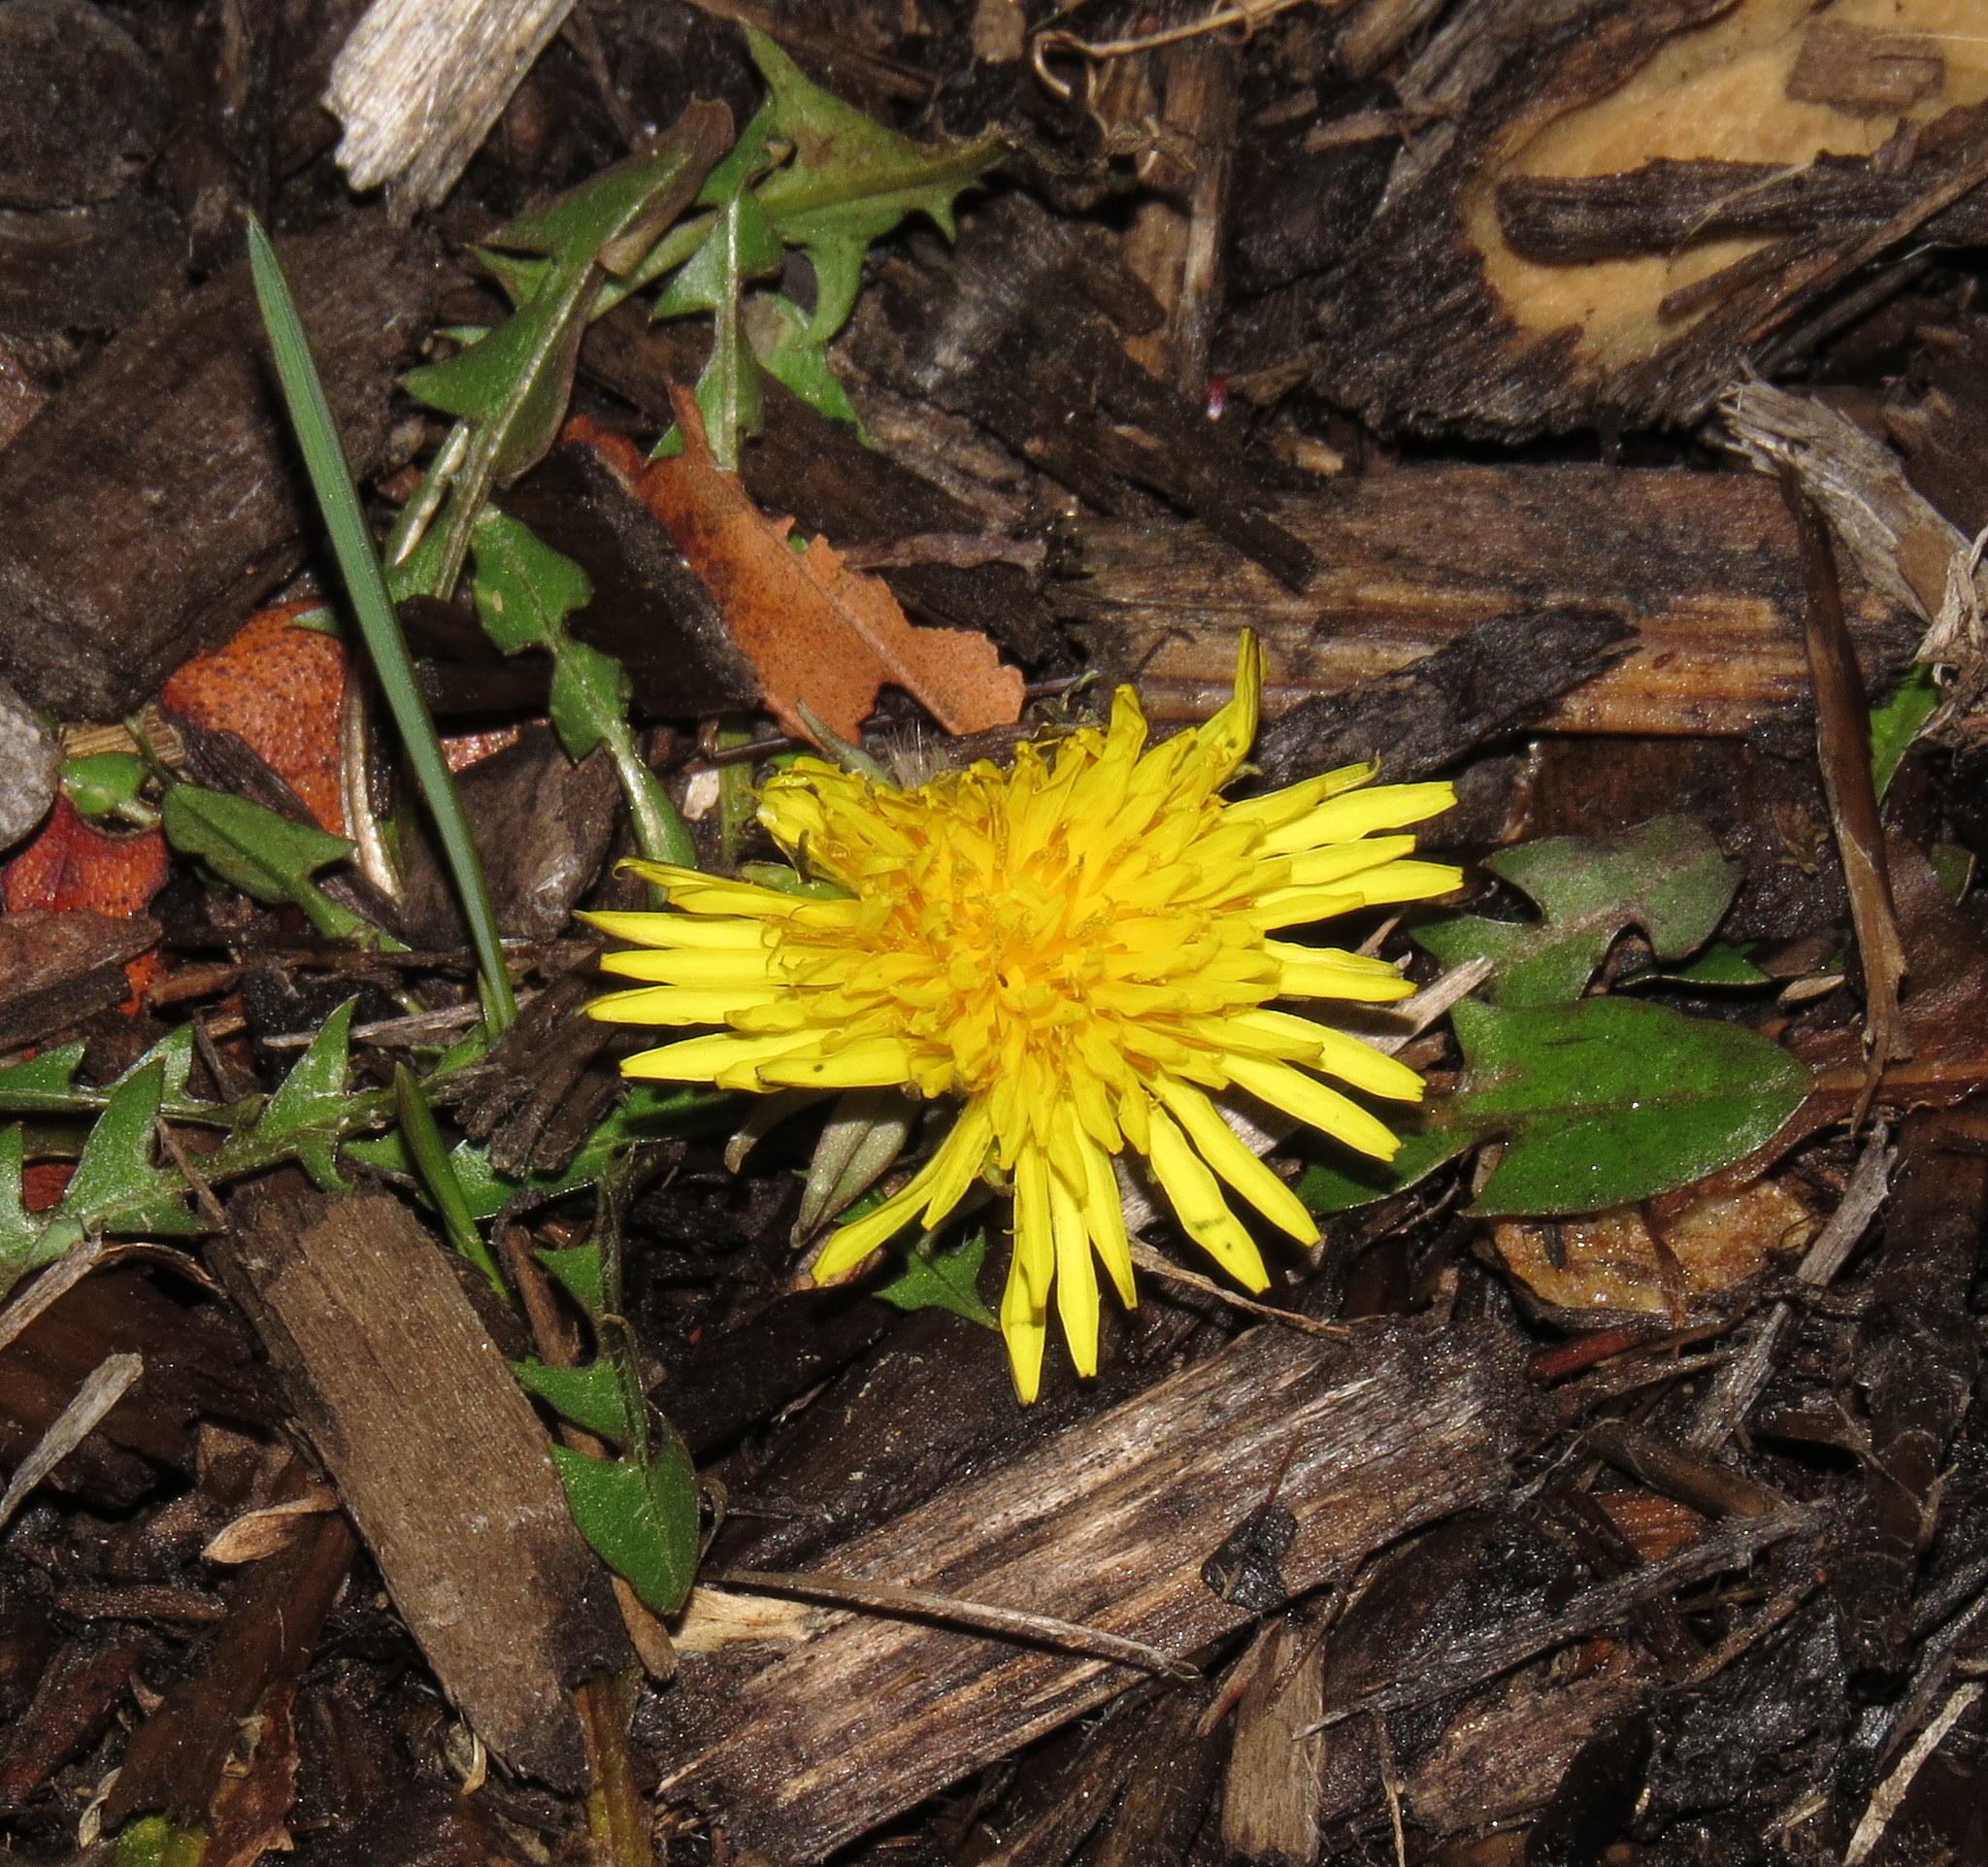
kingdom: Plantae
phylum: Tracheophyta
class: Magnoliopsida
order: Asterales
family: Asteraceae
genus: Taraxacum
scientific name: Taraxacum officinale
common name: Common dandelion
